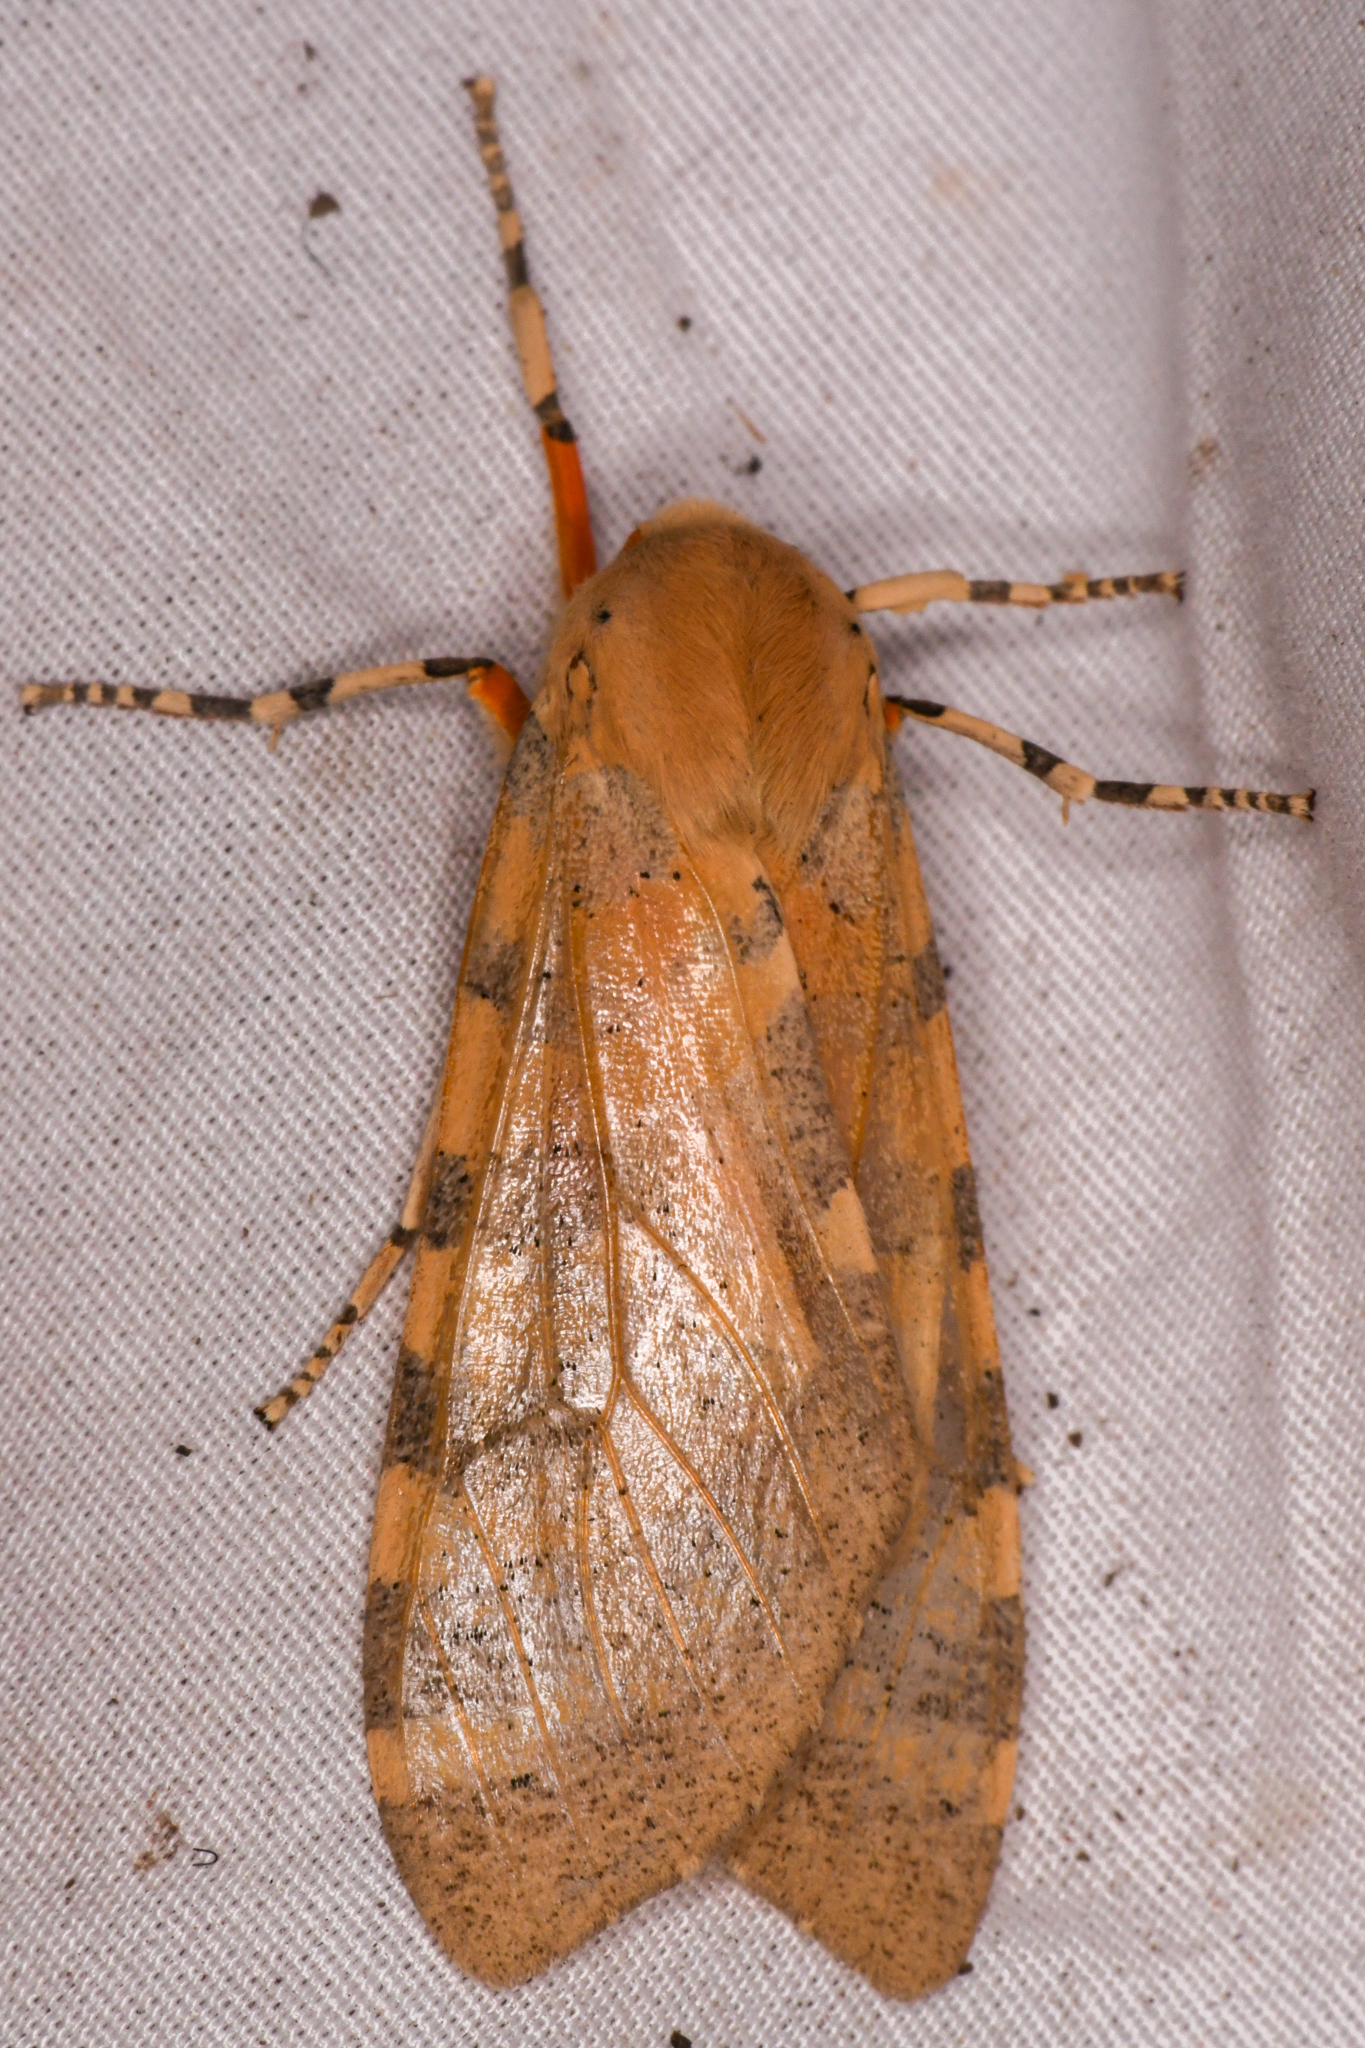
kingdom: Animalia
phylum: Arthropoda
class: Insecta
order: Lepidoptera
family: Erebidae
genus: Hemihyalea
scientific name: Hemihyalea edwardsii
